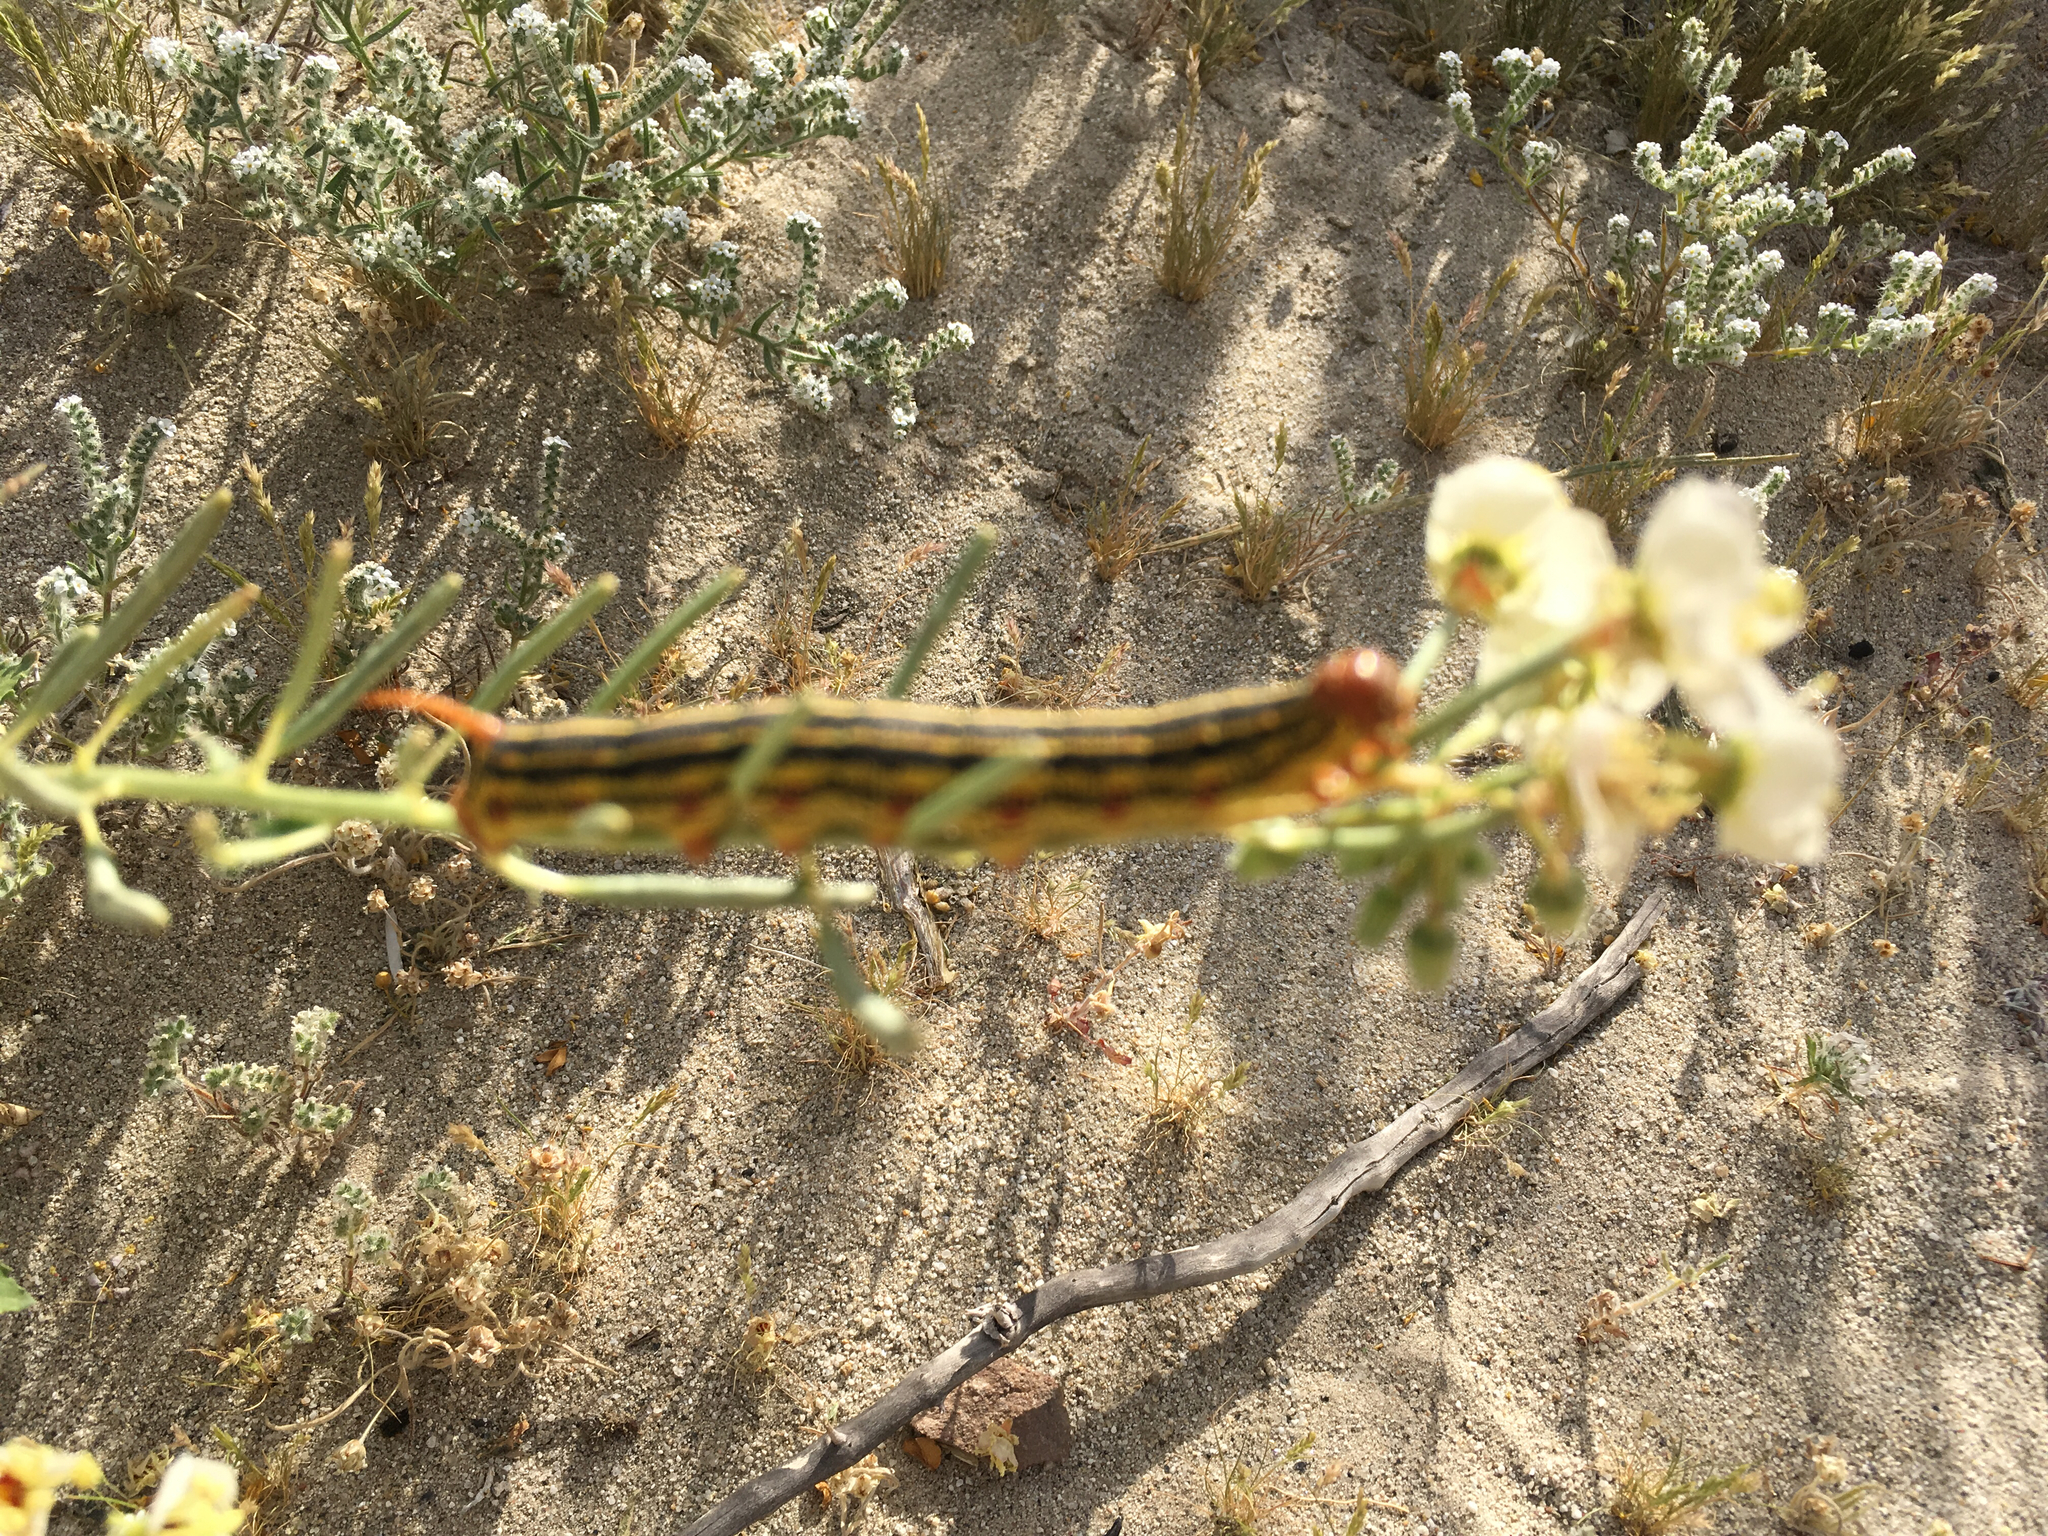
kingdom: Animalia
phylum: Arthropoda
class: Insecta
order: Lepidoptera
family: Sphingidae
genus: Hyles
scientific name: Hyles lineata
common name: White-lined sphinx
